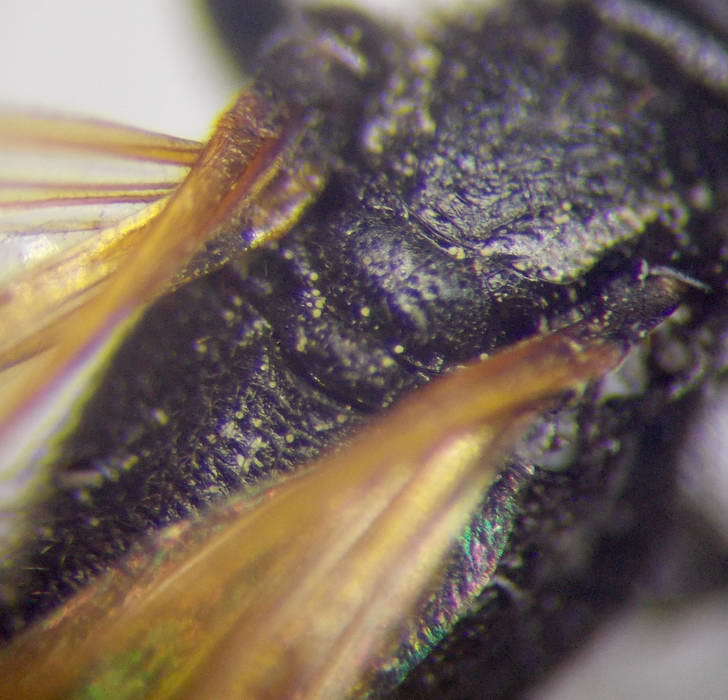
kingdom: Animalia
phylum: Arthropoda
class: Insecta
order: Hymenoptera
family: Sphecidae
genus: Prionyx
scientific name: Prionyx subfuscatus
